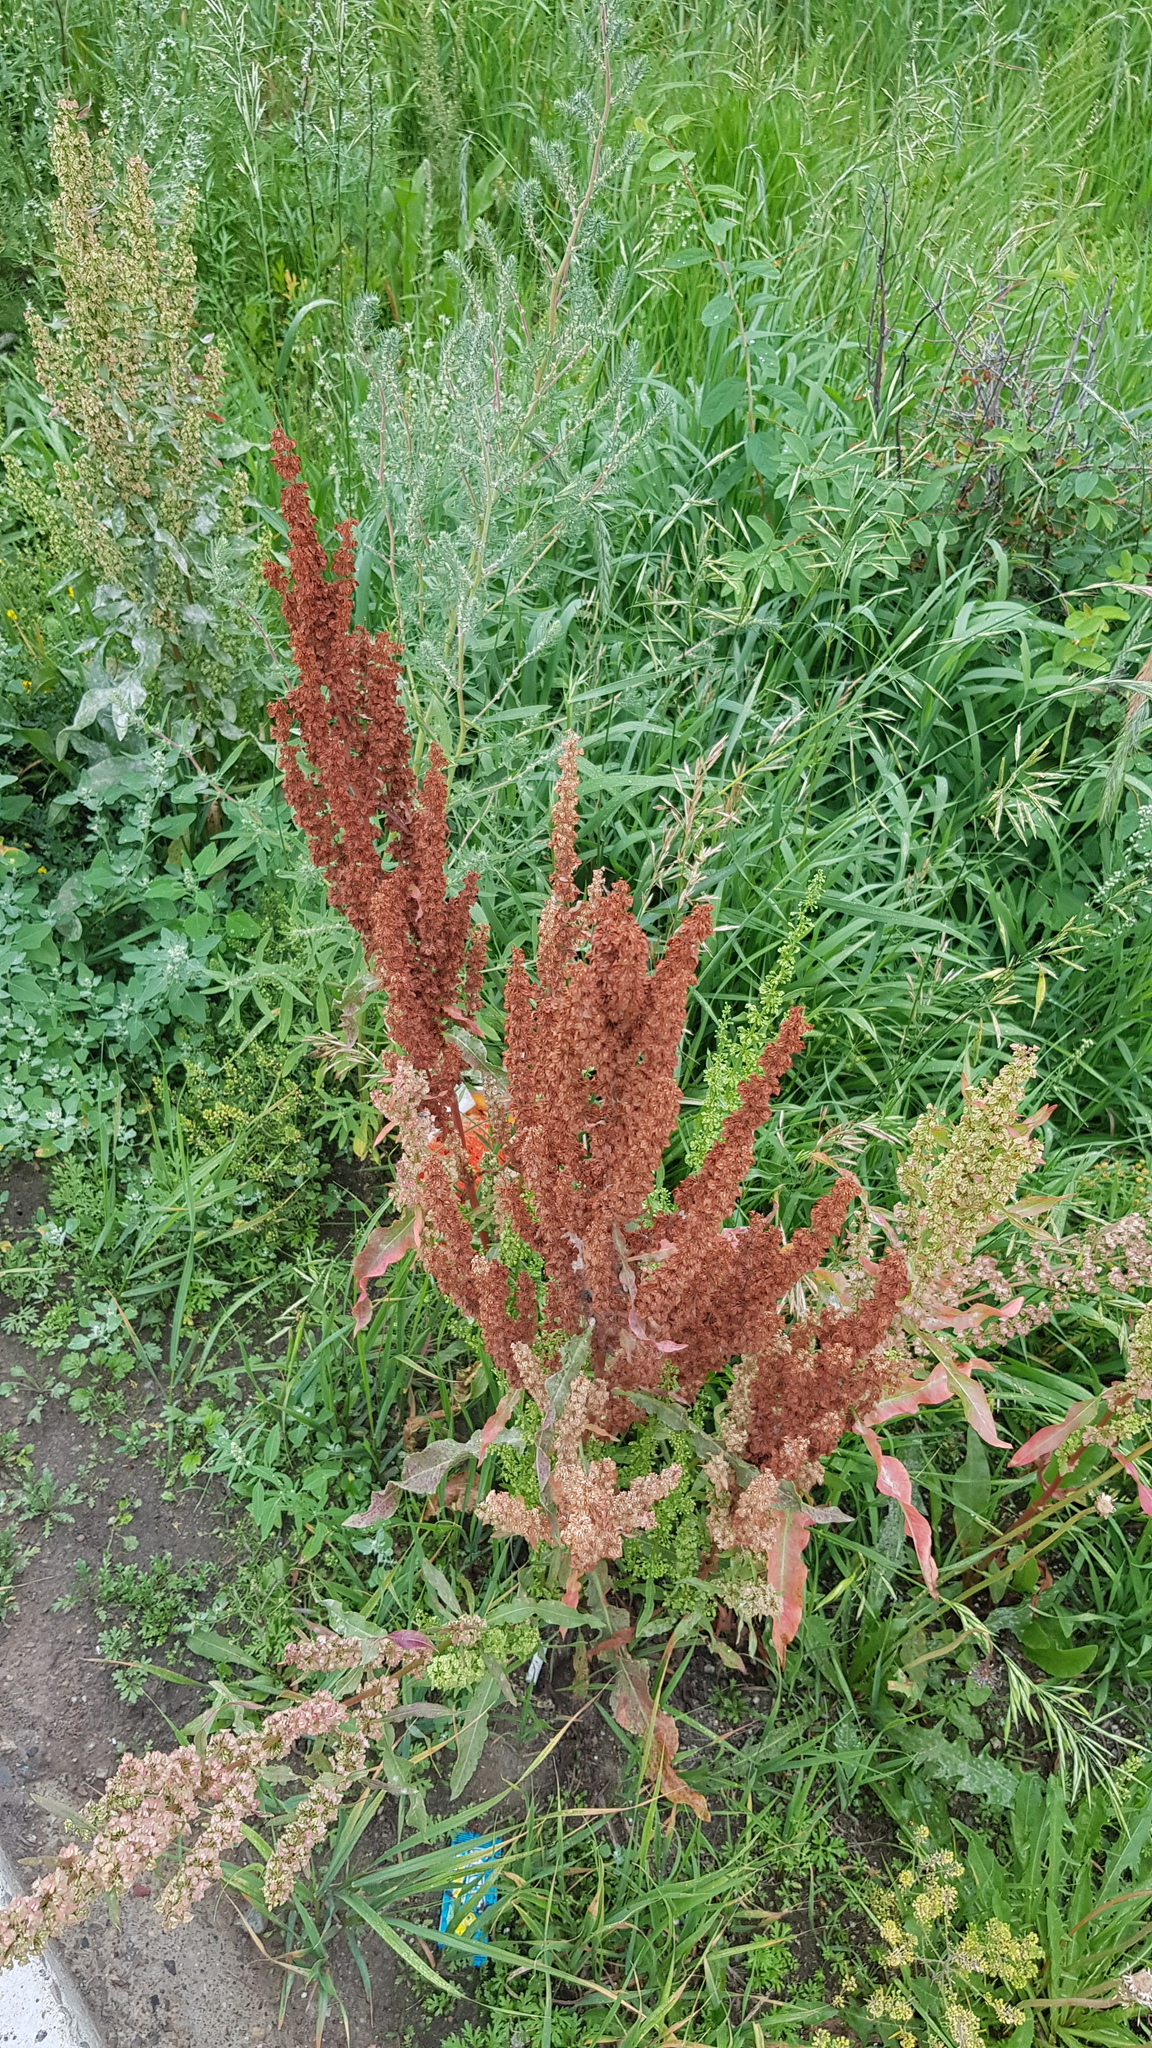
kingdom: Plantae
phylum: Tracheophyta
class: Magnoliopsida
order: Caryophyllales
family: Polygonaceae
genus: Rumex
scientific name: Rumex stenophyllus
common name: Narrowleaf dock
